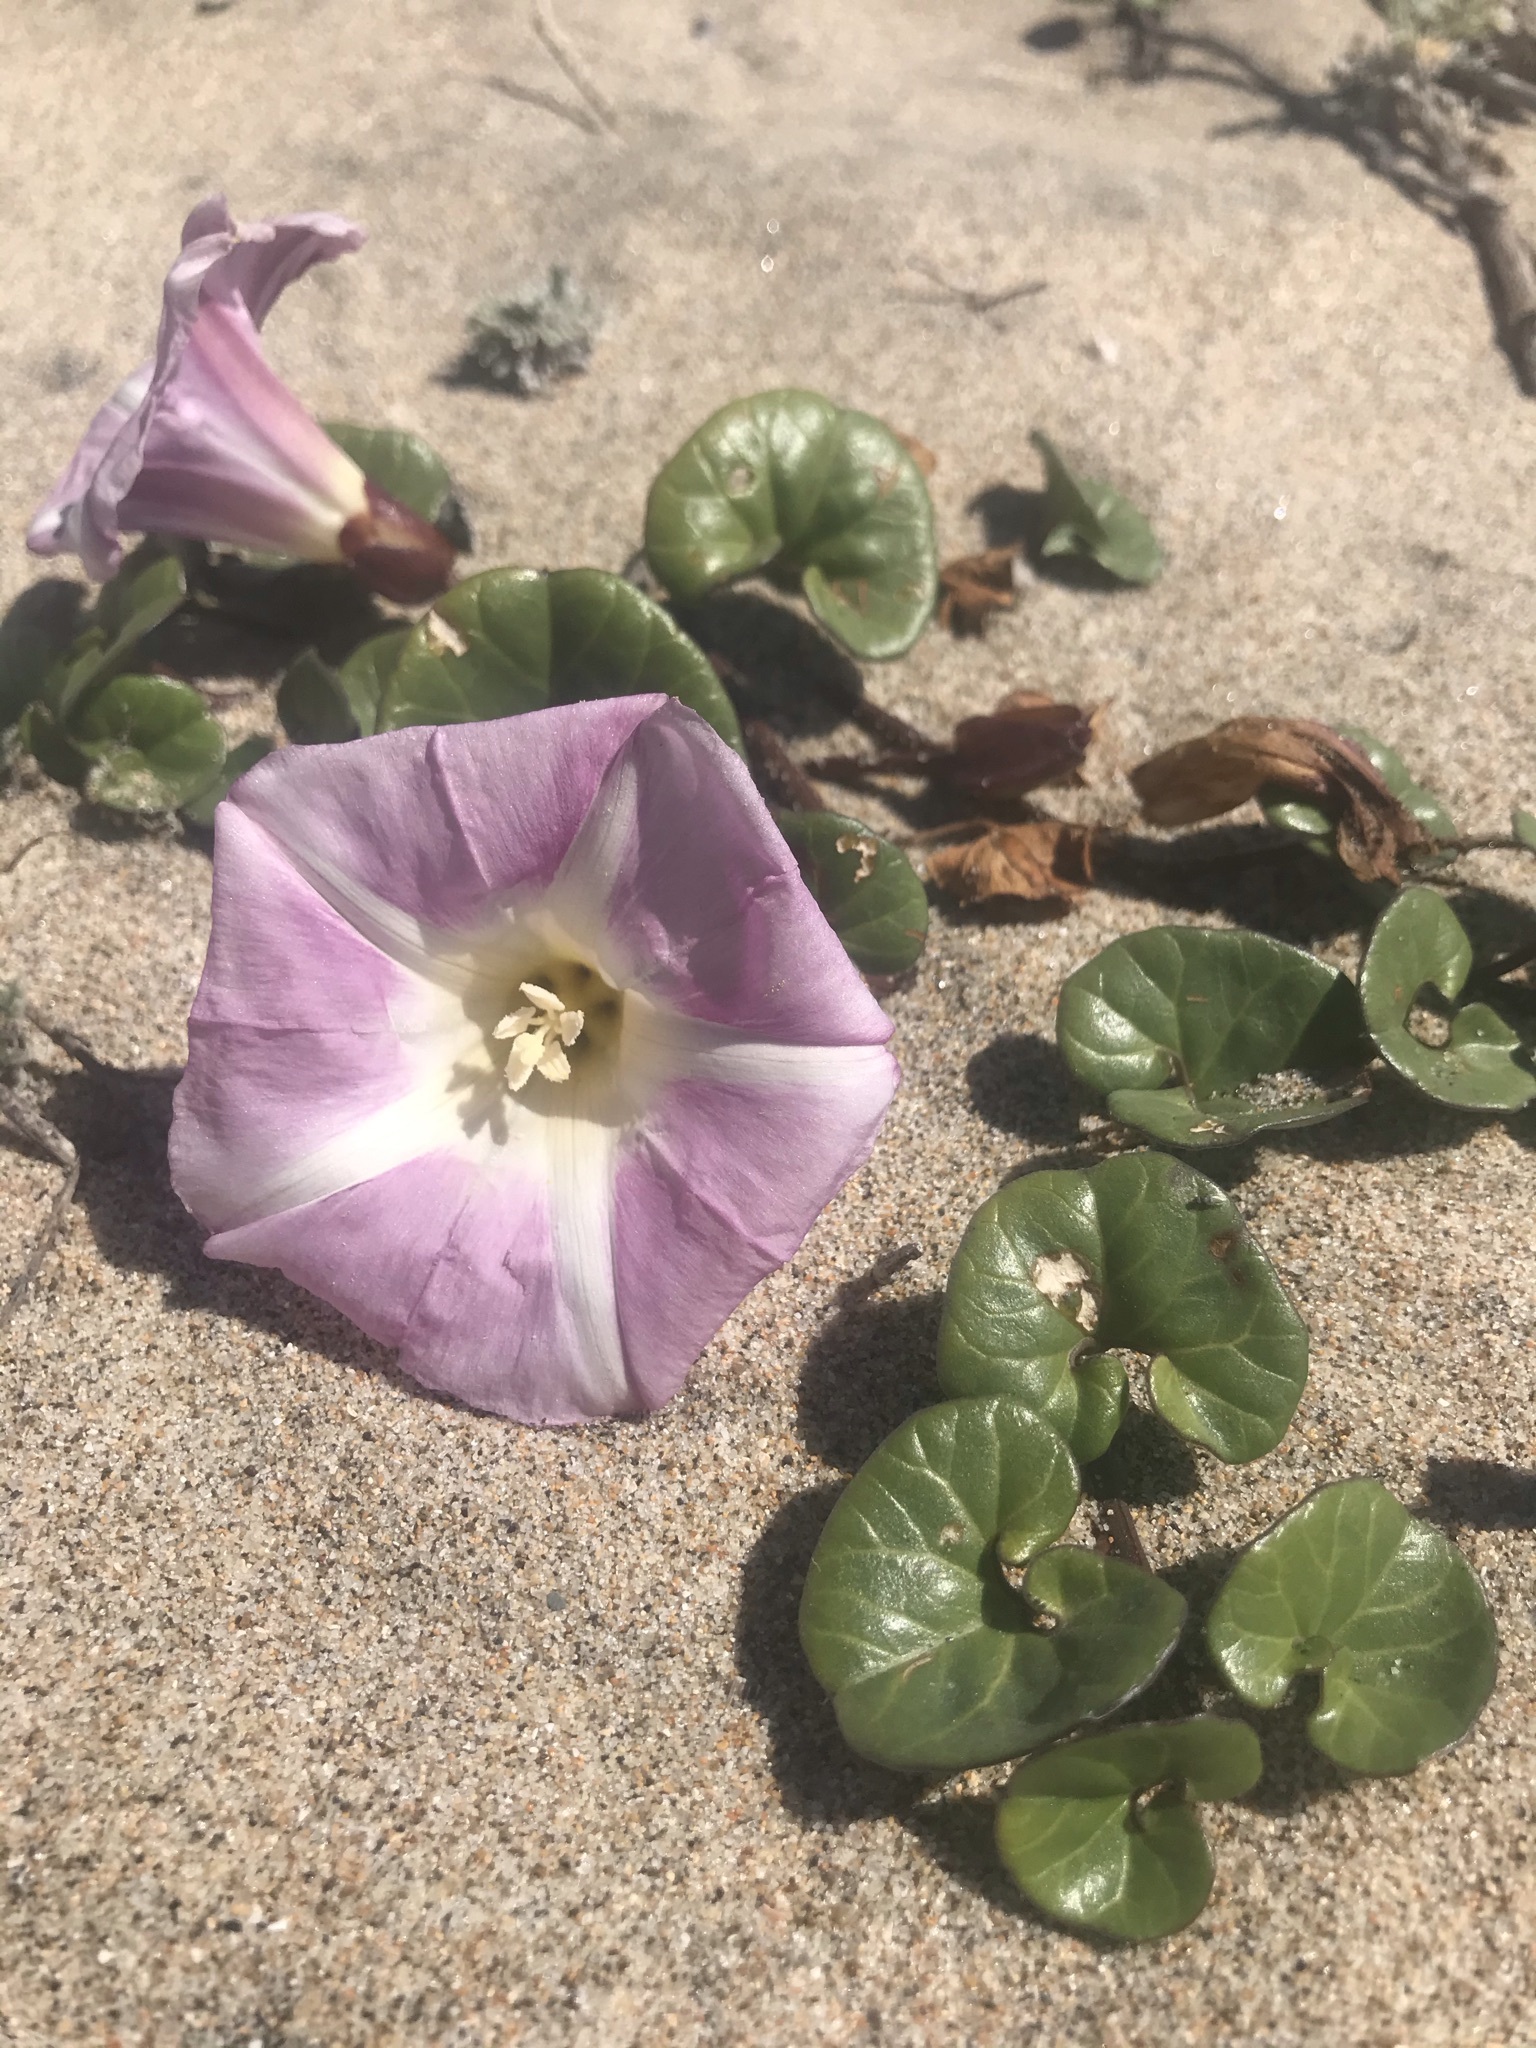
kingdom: Plantae
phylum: Tracheophyta
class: Magnoliopsida
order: Solanales
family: Convolvulaceae
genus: Calystegia
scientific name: Calystegia soldanella
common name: Sea bindweed
